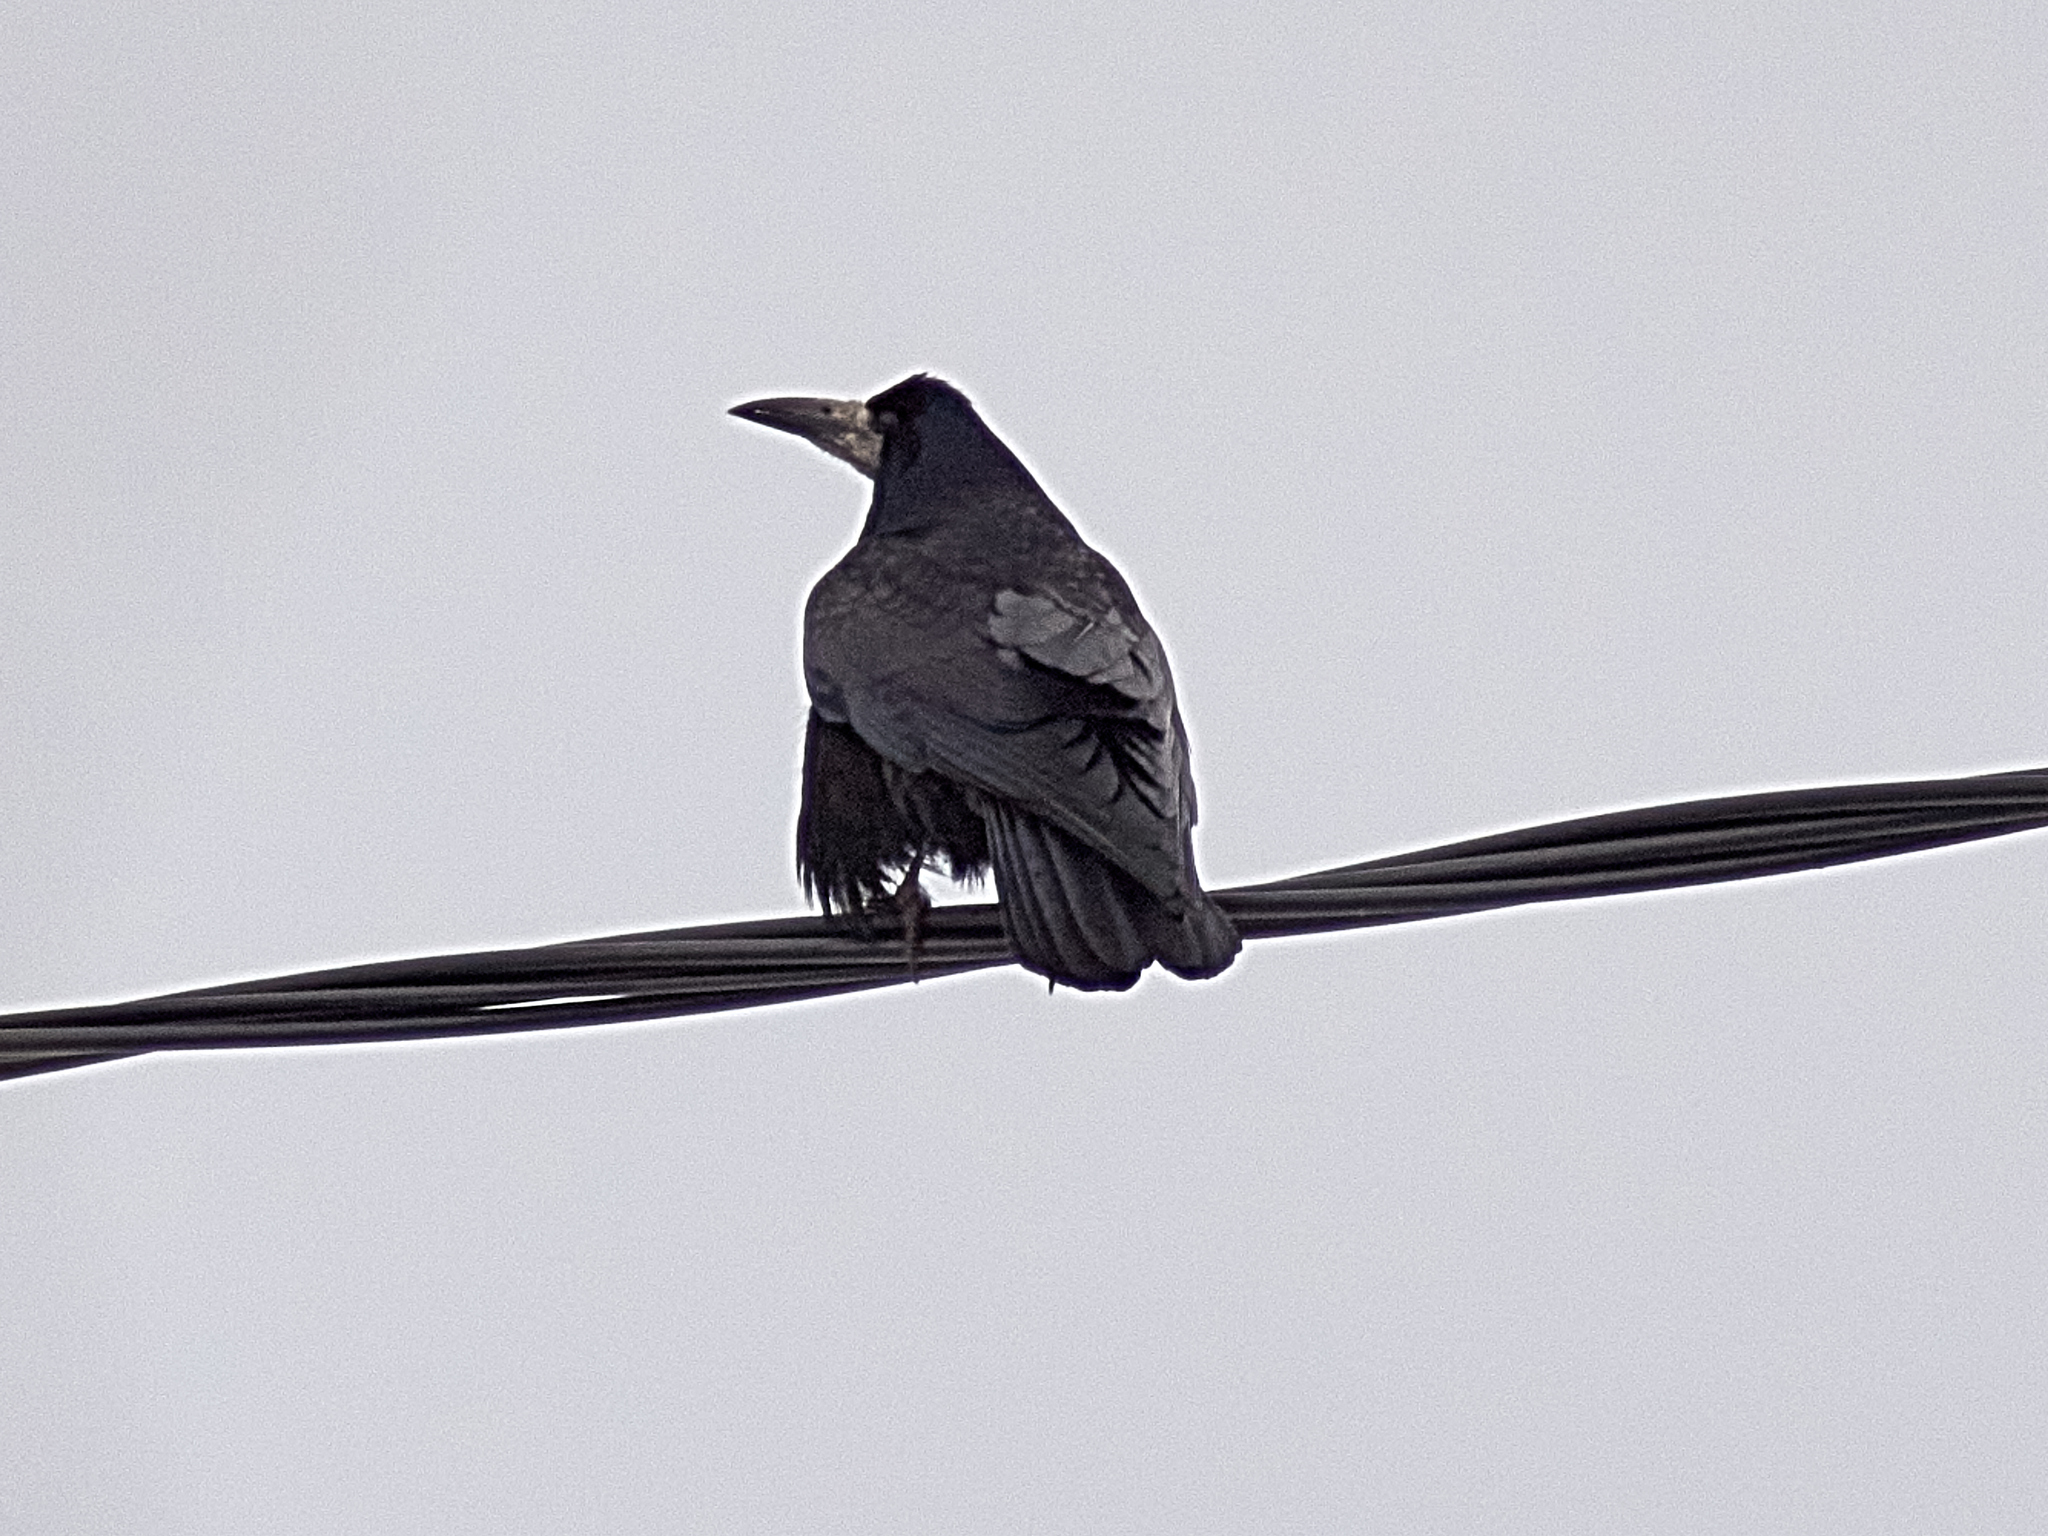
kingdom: Animalia
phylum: Chordata
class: Aves
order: Passeriformes
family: Corvidae
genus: Corvus
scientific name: Corvus frugilegus
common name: Rook
